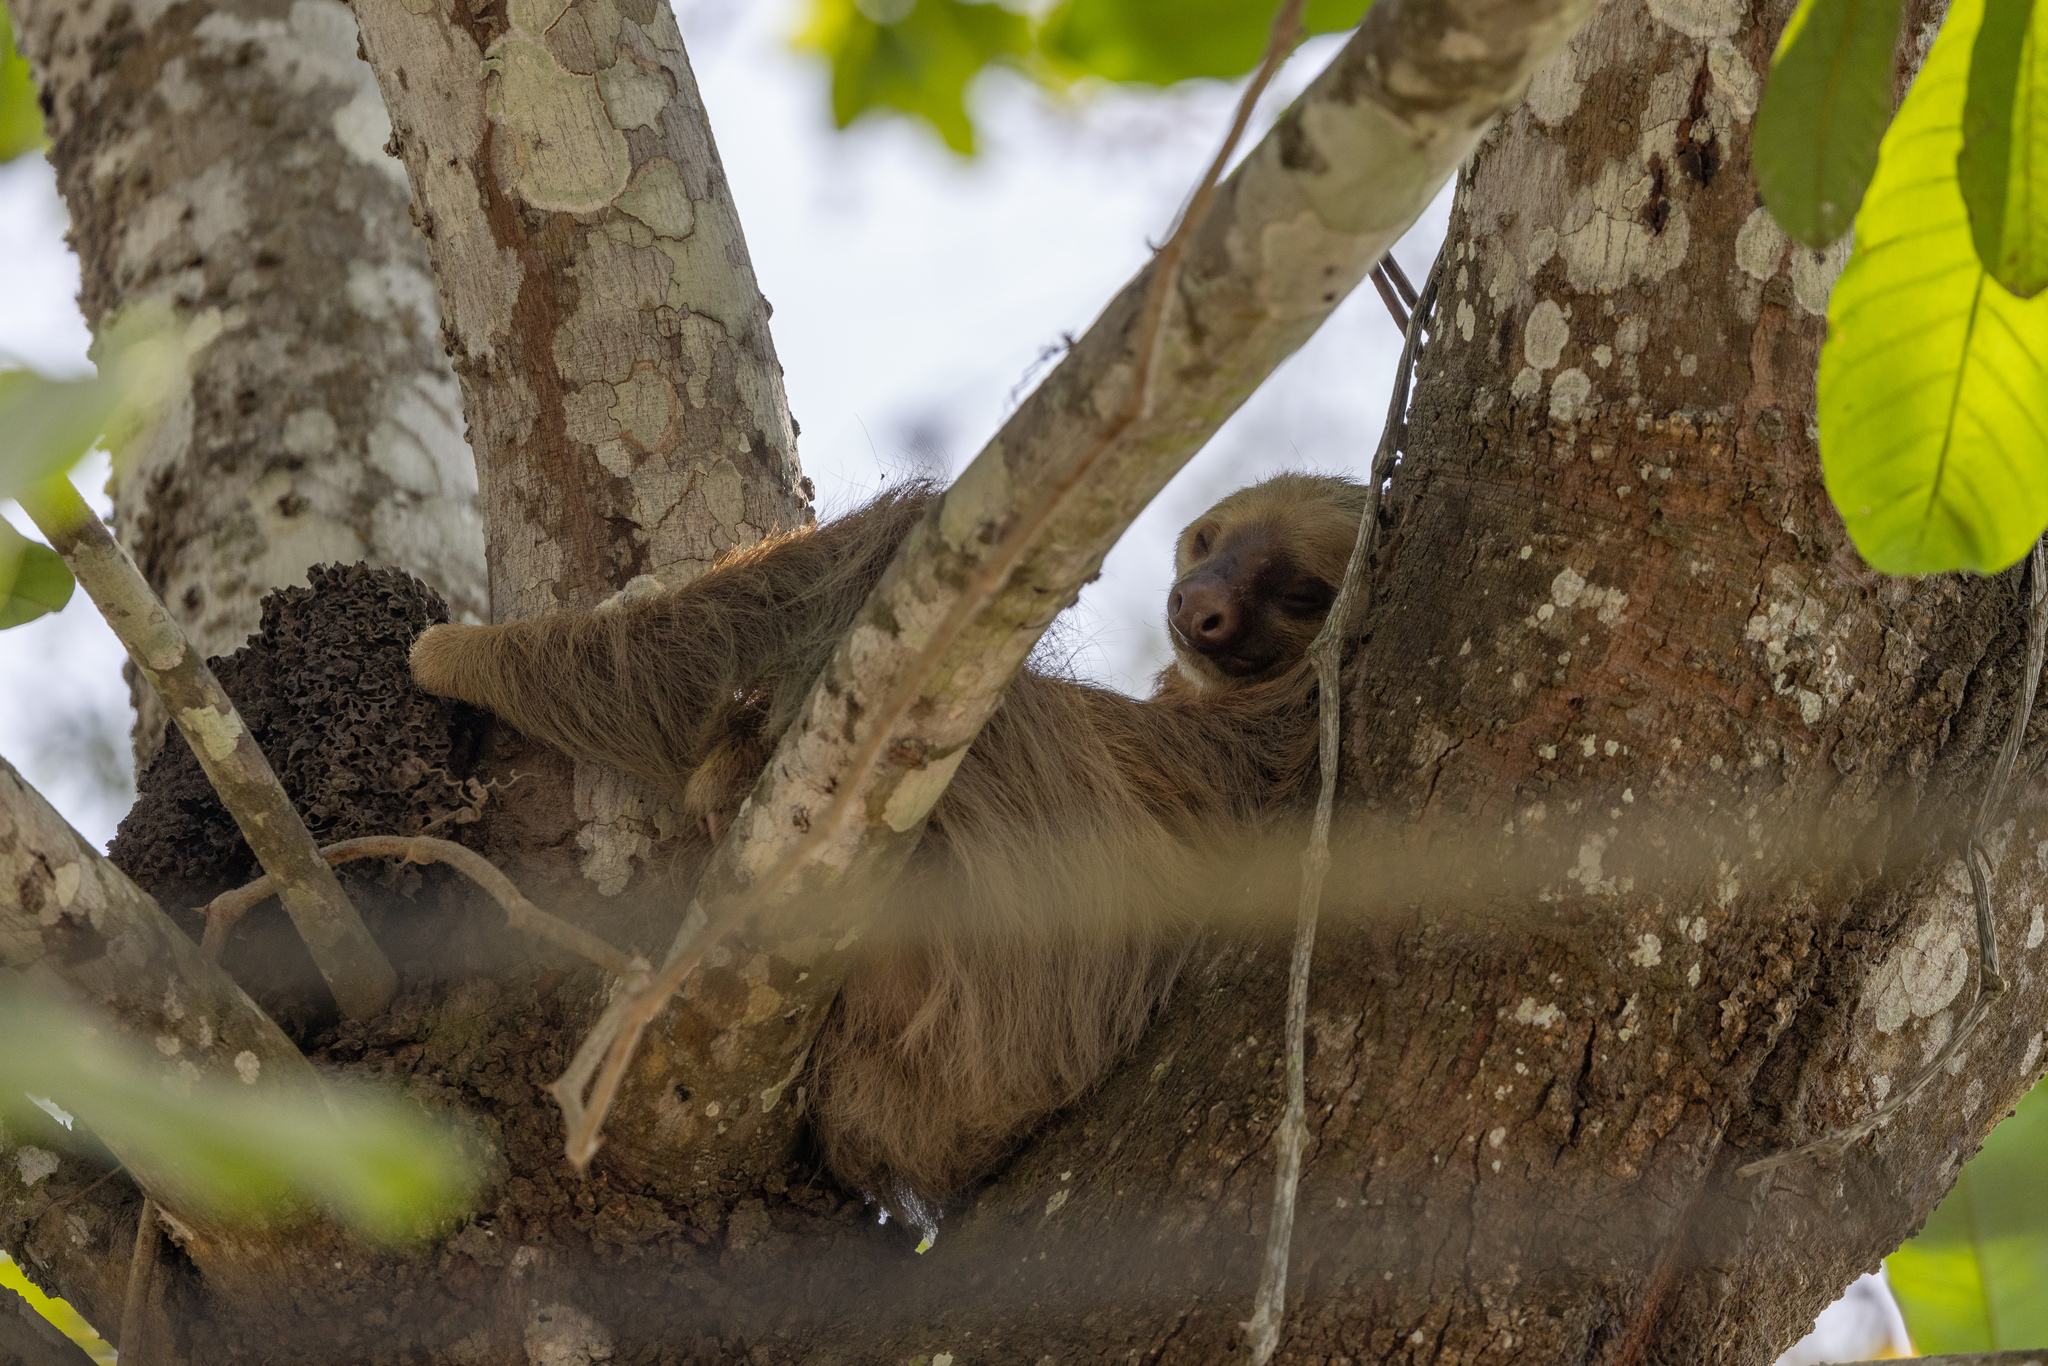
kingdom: Animalia
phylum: Chordata
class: Mammalia
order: Pilosa
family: Megalonychidae
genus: Choloepus
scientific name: Choloepus hoffmanni
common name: Hoffmann's two-toed sloth
